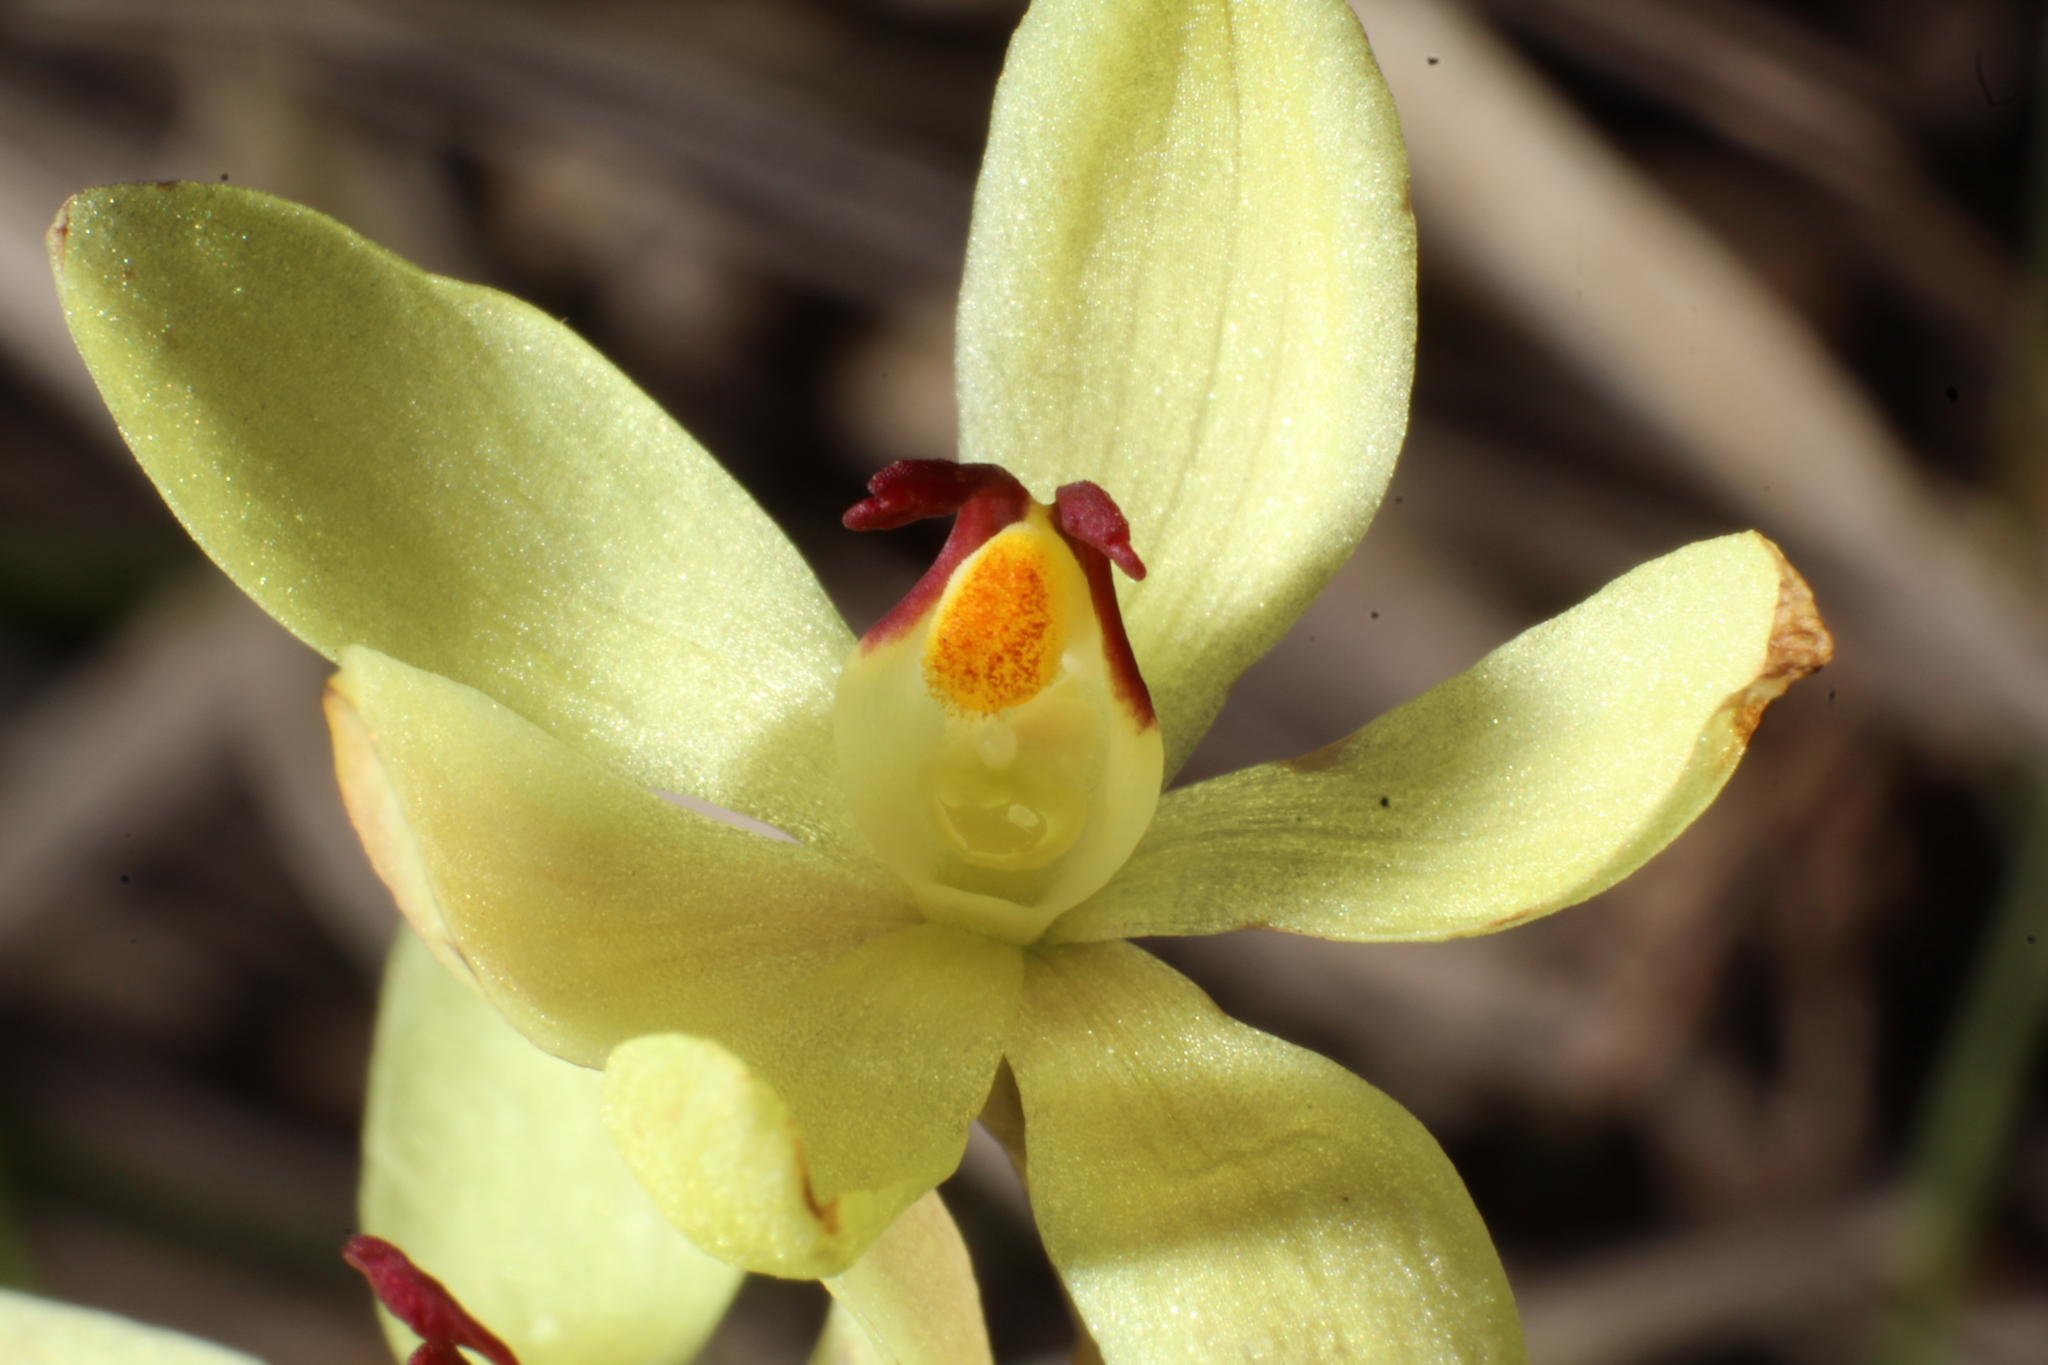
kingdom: Plantae
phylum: Tracheophyta
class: Liliopsida
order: Asparagales
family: Orchidaceae
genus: Thelymitra
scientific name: Thelymitra antennifera
